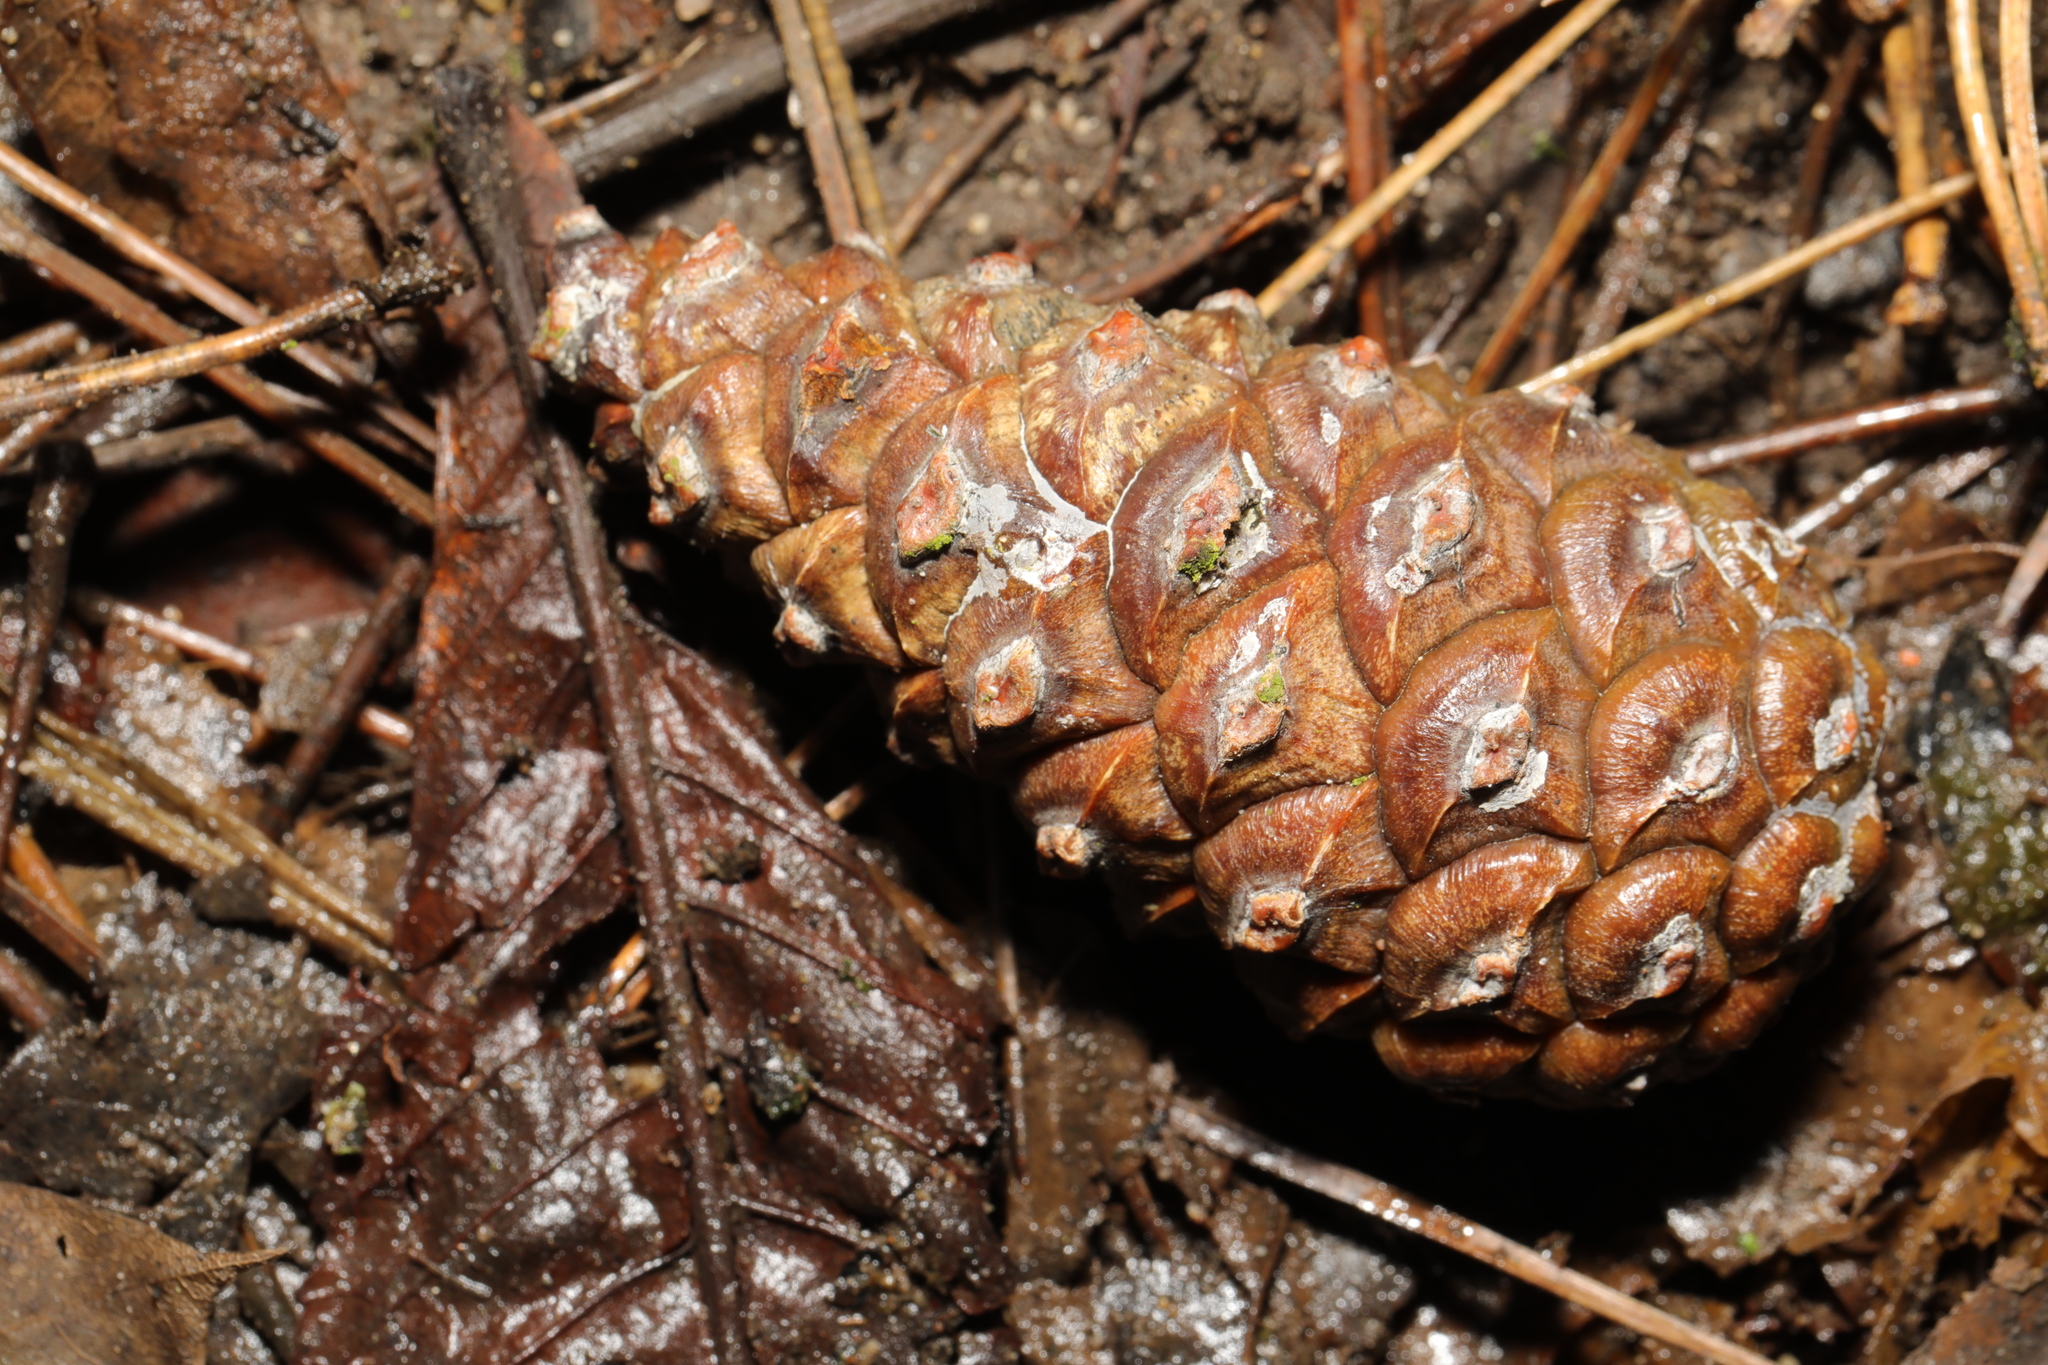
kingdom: Plantae
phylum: Tracheophyta
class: Pinopsida
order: Pinales
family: Pinaceae
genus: Pinus
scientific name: Pinus sylvestris
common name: Scots pine
